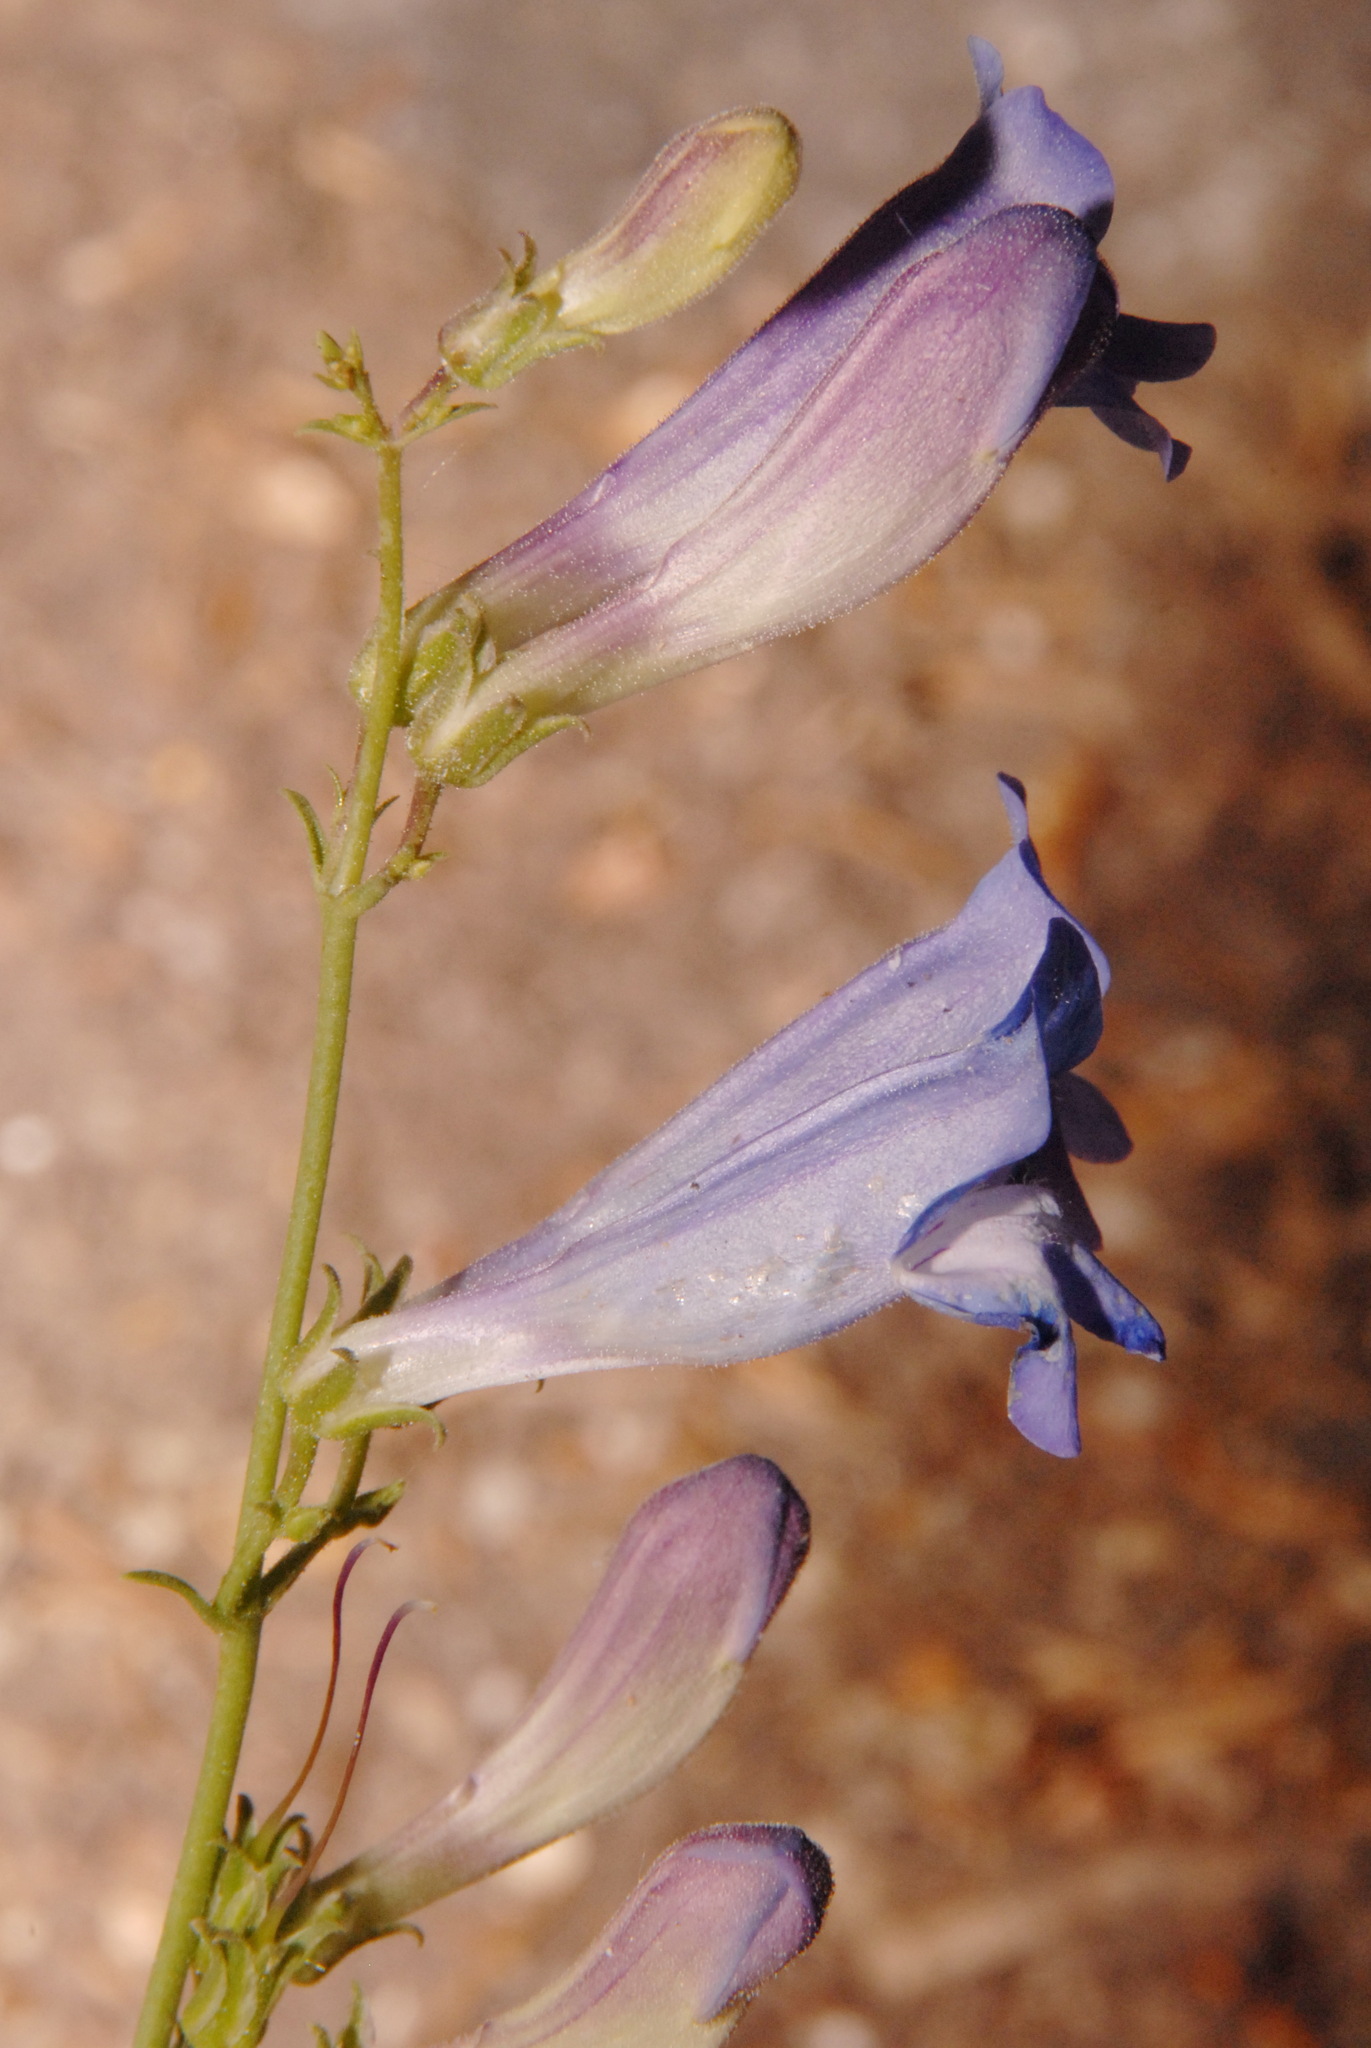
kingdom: Plantae
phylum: Tracheophyta
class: Magnoliopsida
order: Lamiales
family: Plantaginaceae
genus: Penstemon
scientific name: Penstemon leiophyllus
